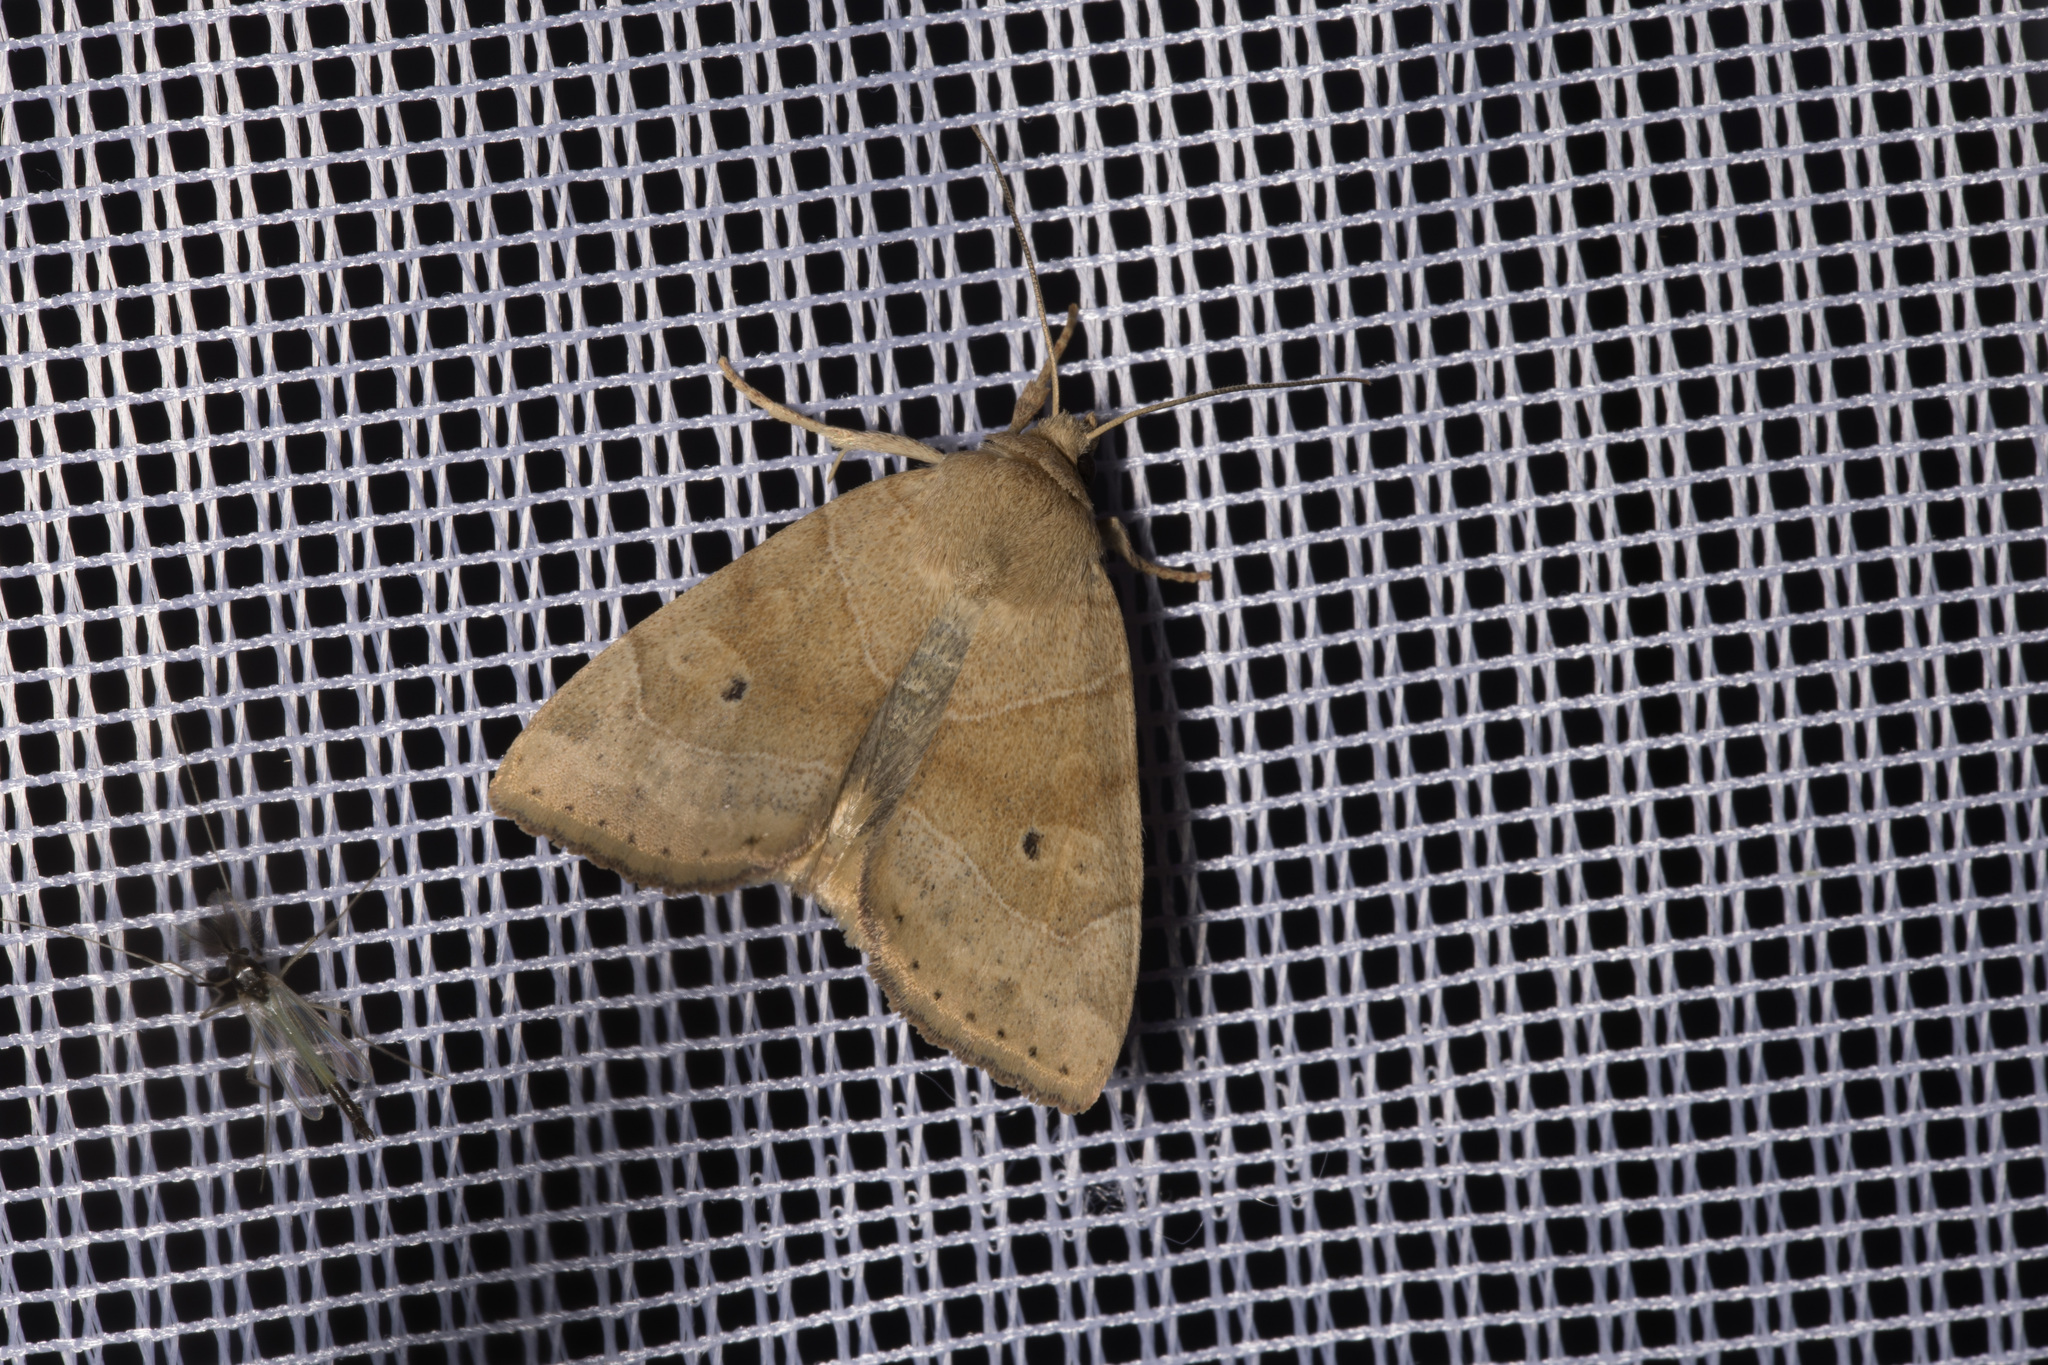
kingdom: Animalia
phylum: Arthropoda
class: Insecta
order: Lepidoptera
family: Noctuidae
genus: Cosmia
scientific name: Cosmia trapezina
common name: Dun-bar
